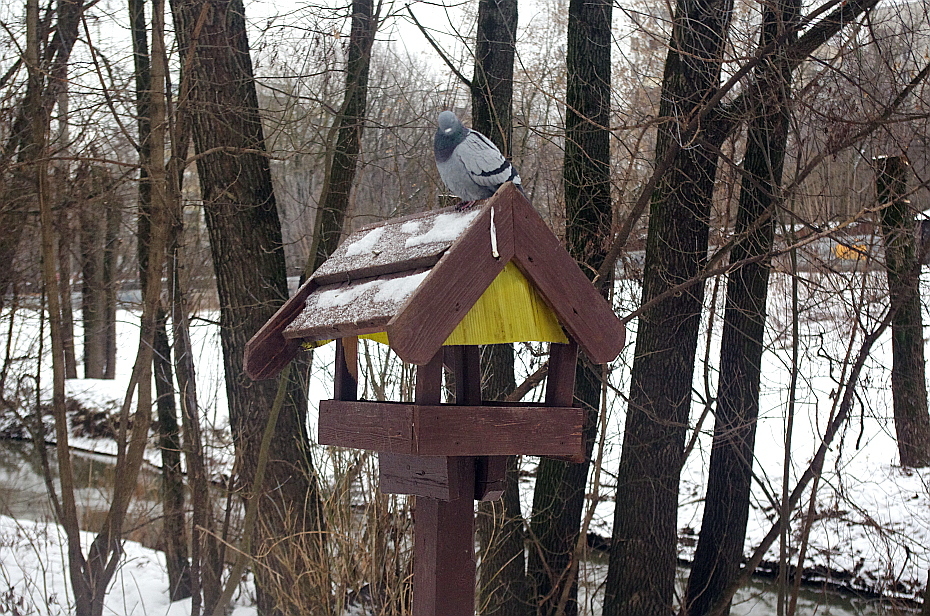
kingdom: Animalia
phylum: Chordata
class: Aves
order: Columbiformes
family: Columbidae
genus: Columba
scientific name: Columba livia
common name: Rock pigeon
